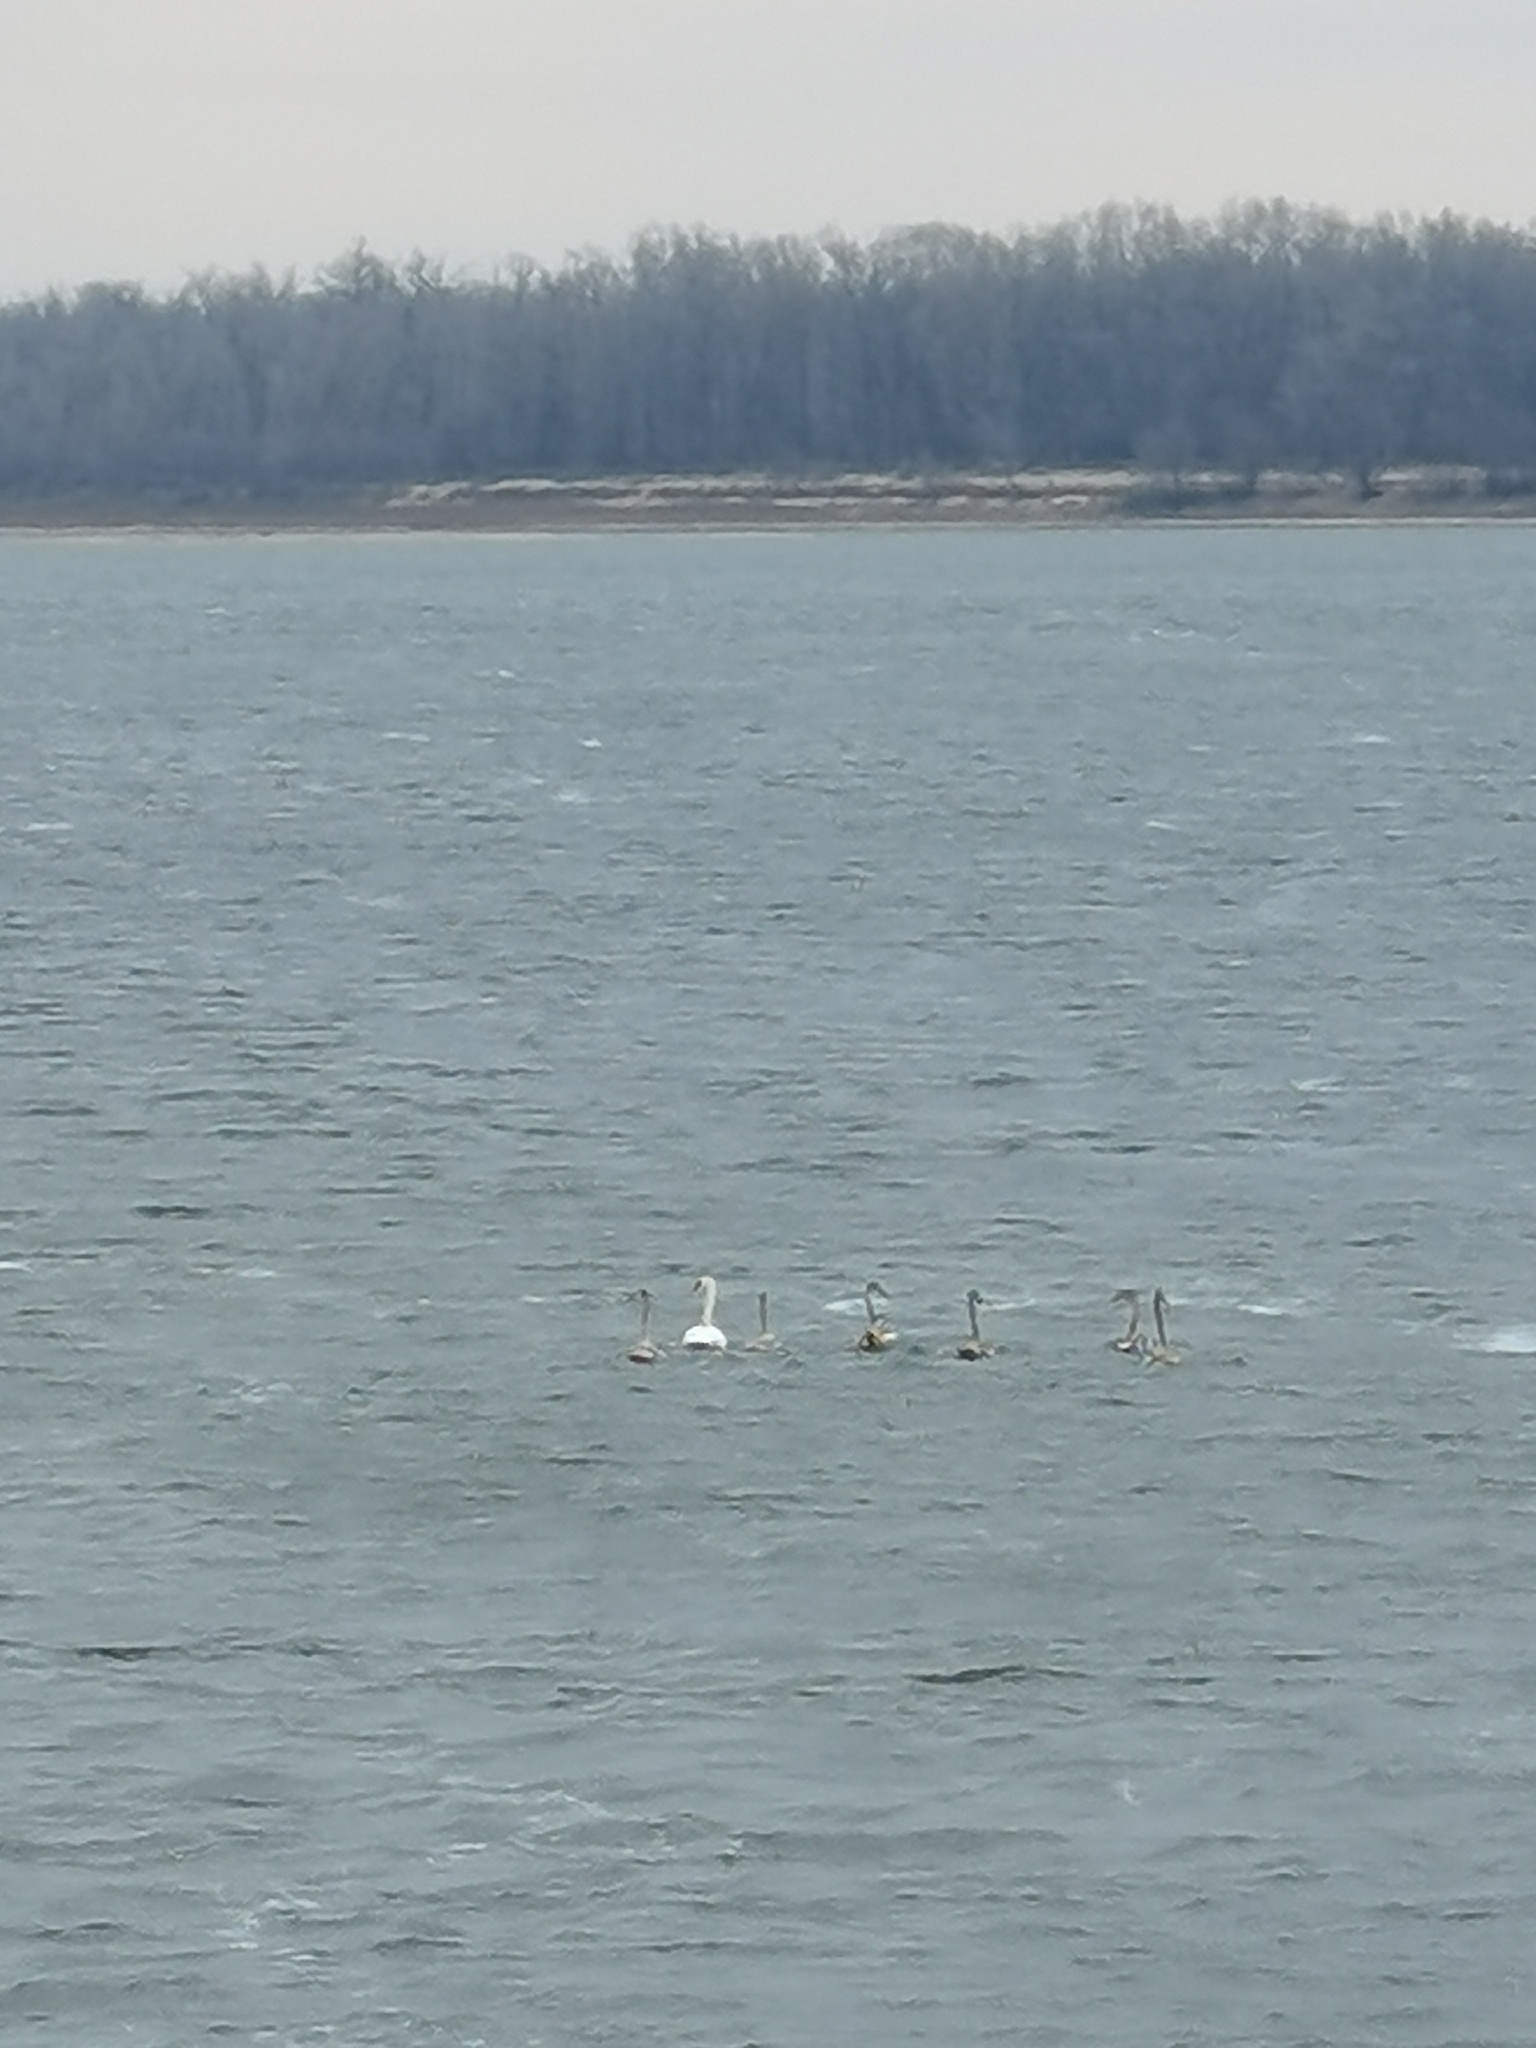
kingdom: Animalia
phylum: Chordata
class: Aves
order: Anseriformes
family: Anatidae
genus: Cygnus
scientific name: Cygnus olor
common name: Mute swan
